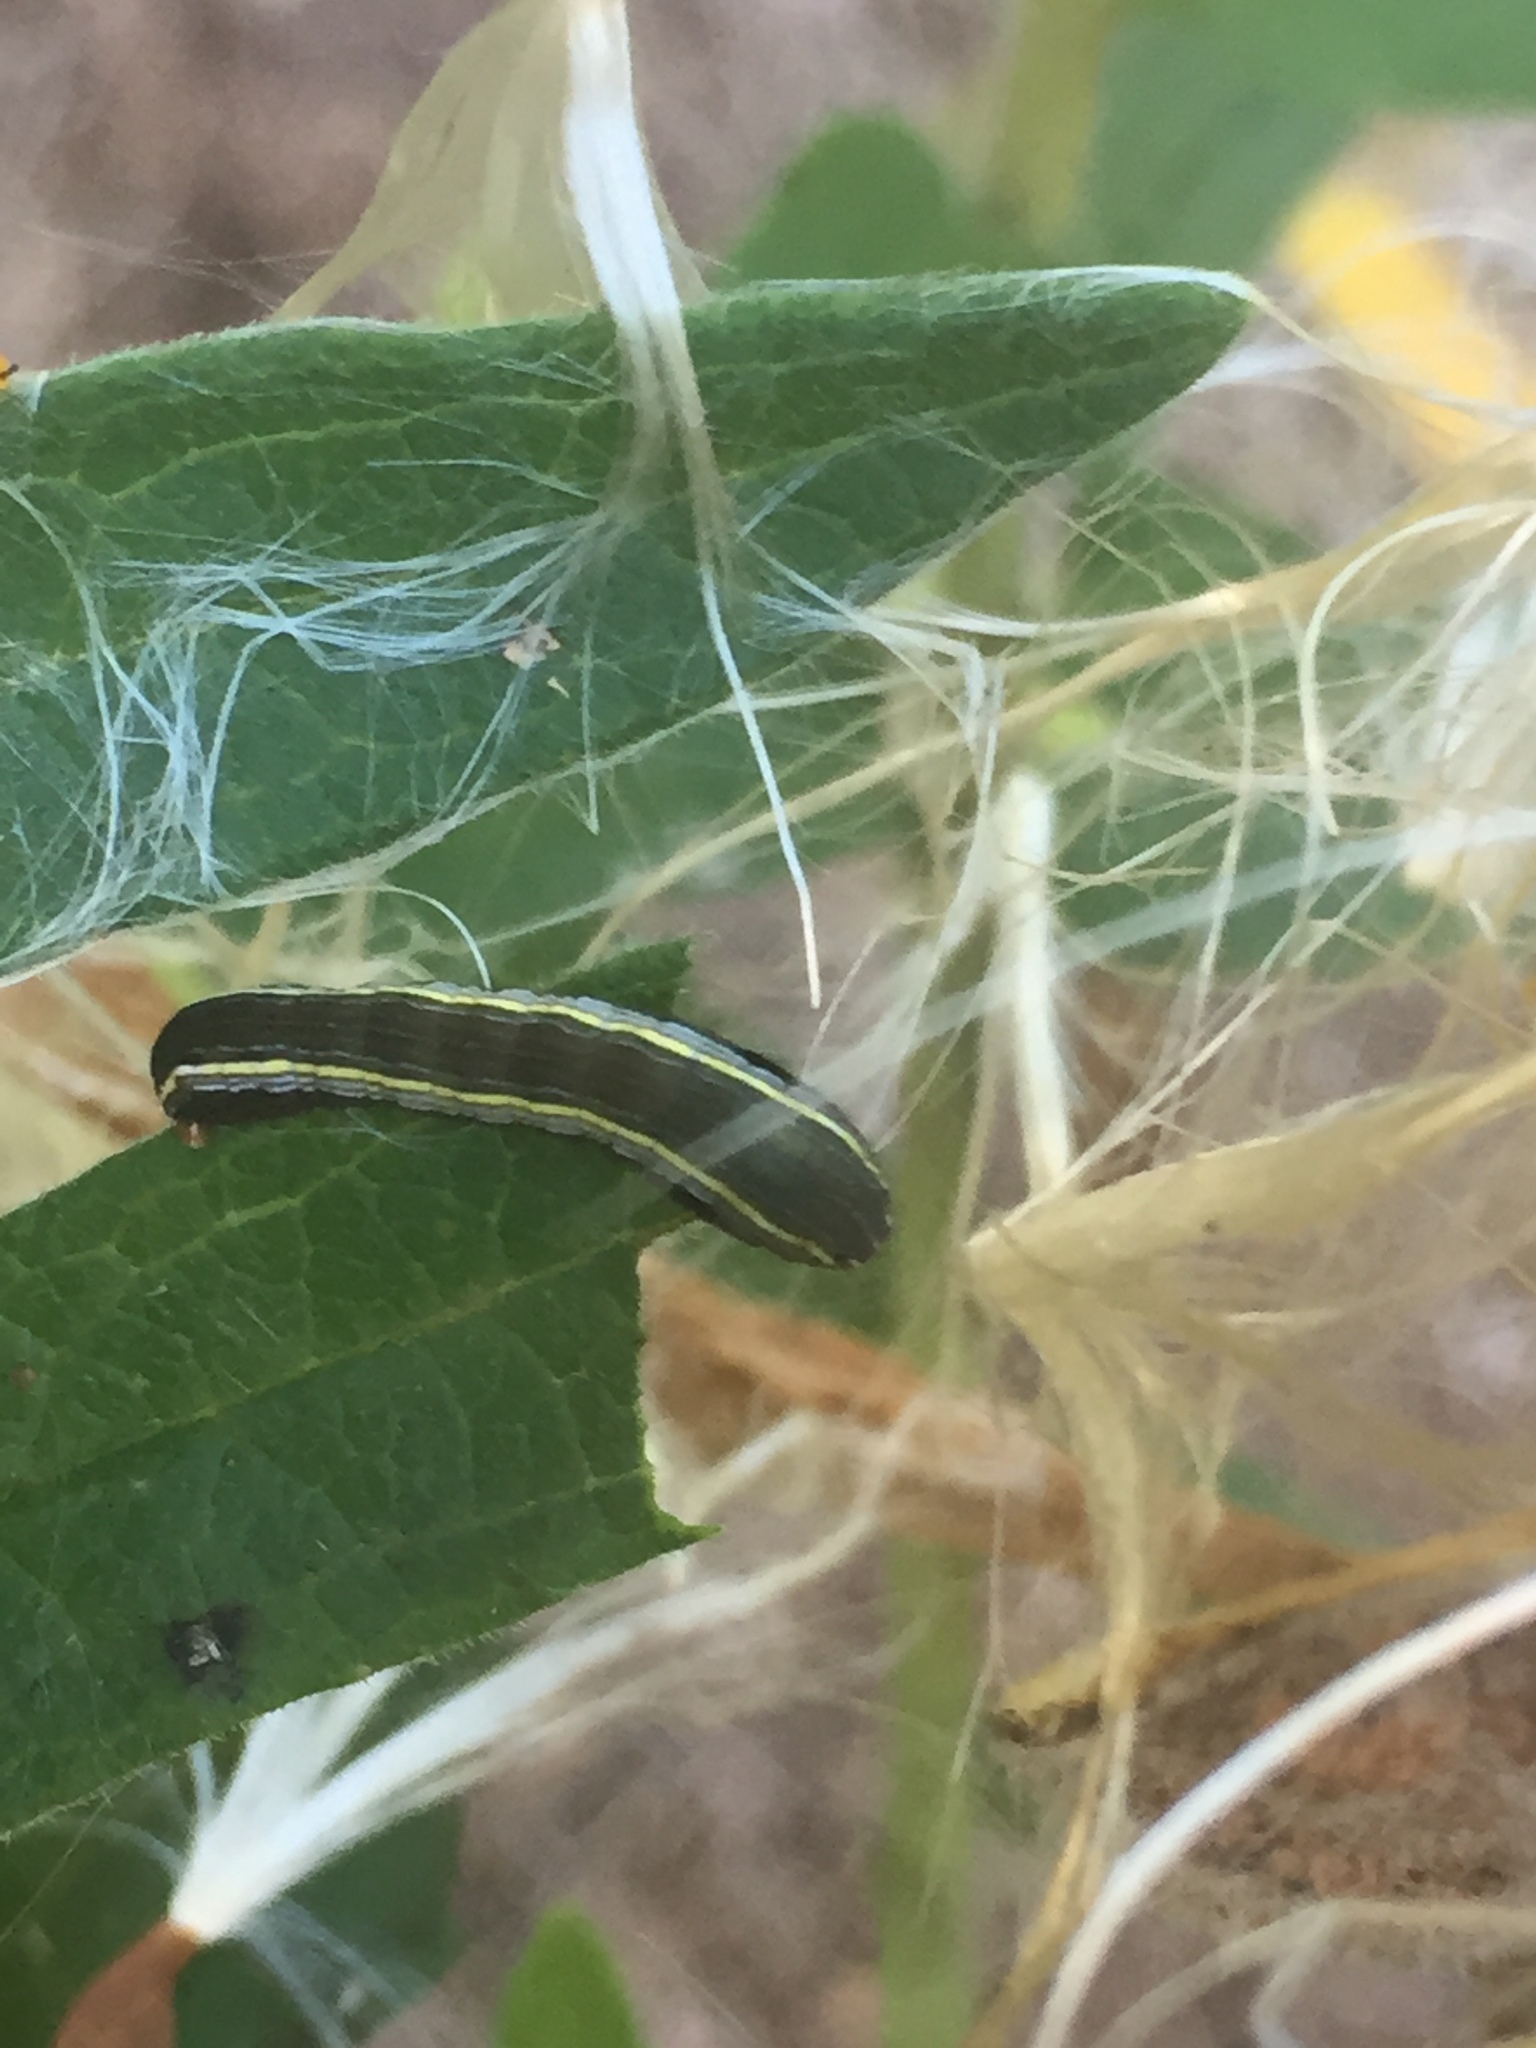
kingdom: Animalia
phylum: Arthropoda
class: Insecta
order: Lepidoptera
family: Noctuidae
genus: Spodoptera
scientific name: Spodoptera ornithogalli
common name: Yellow-striped armyworm
